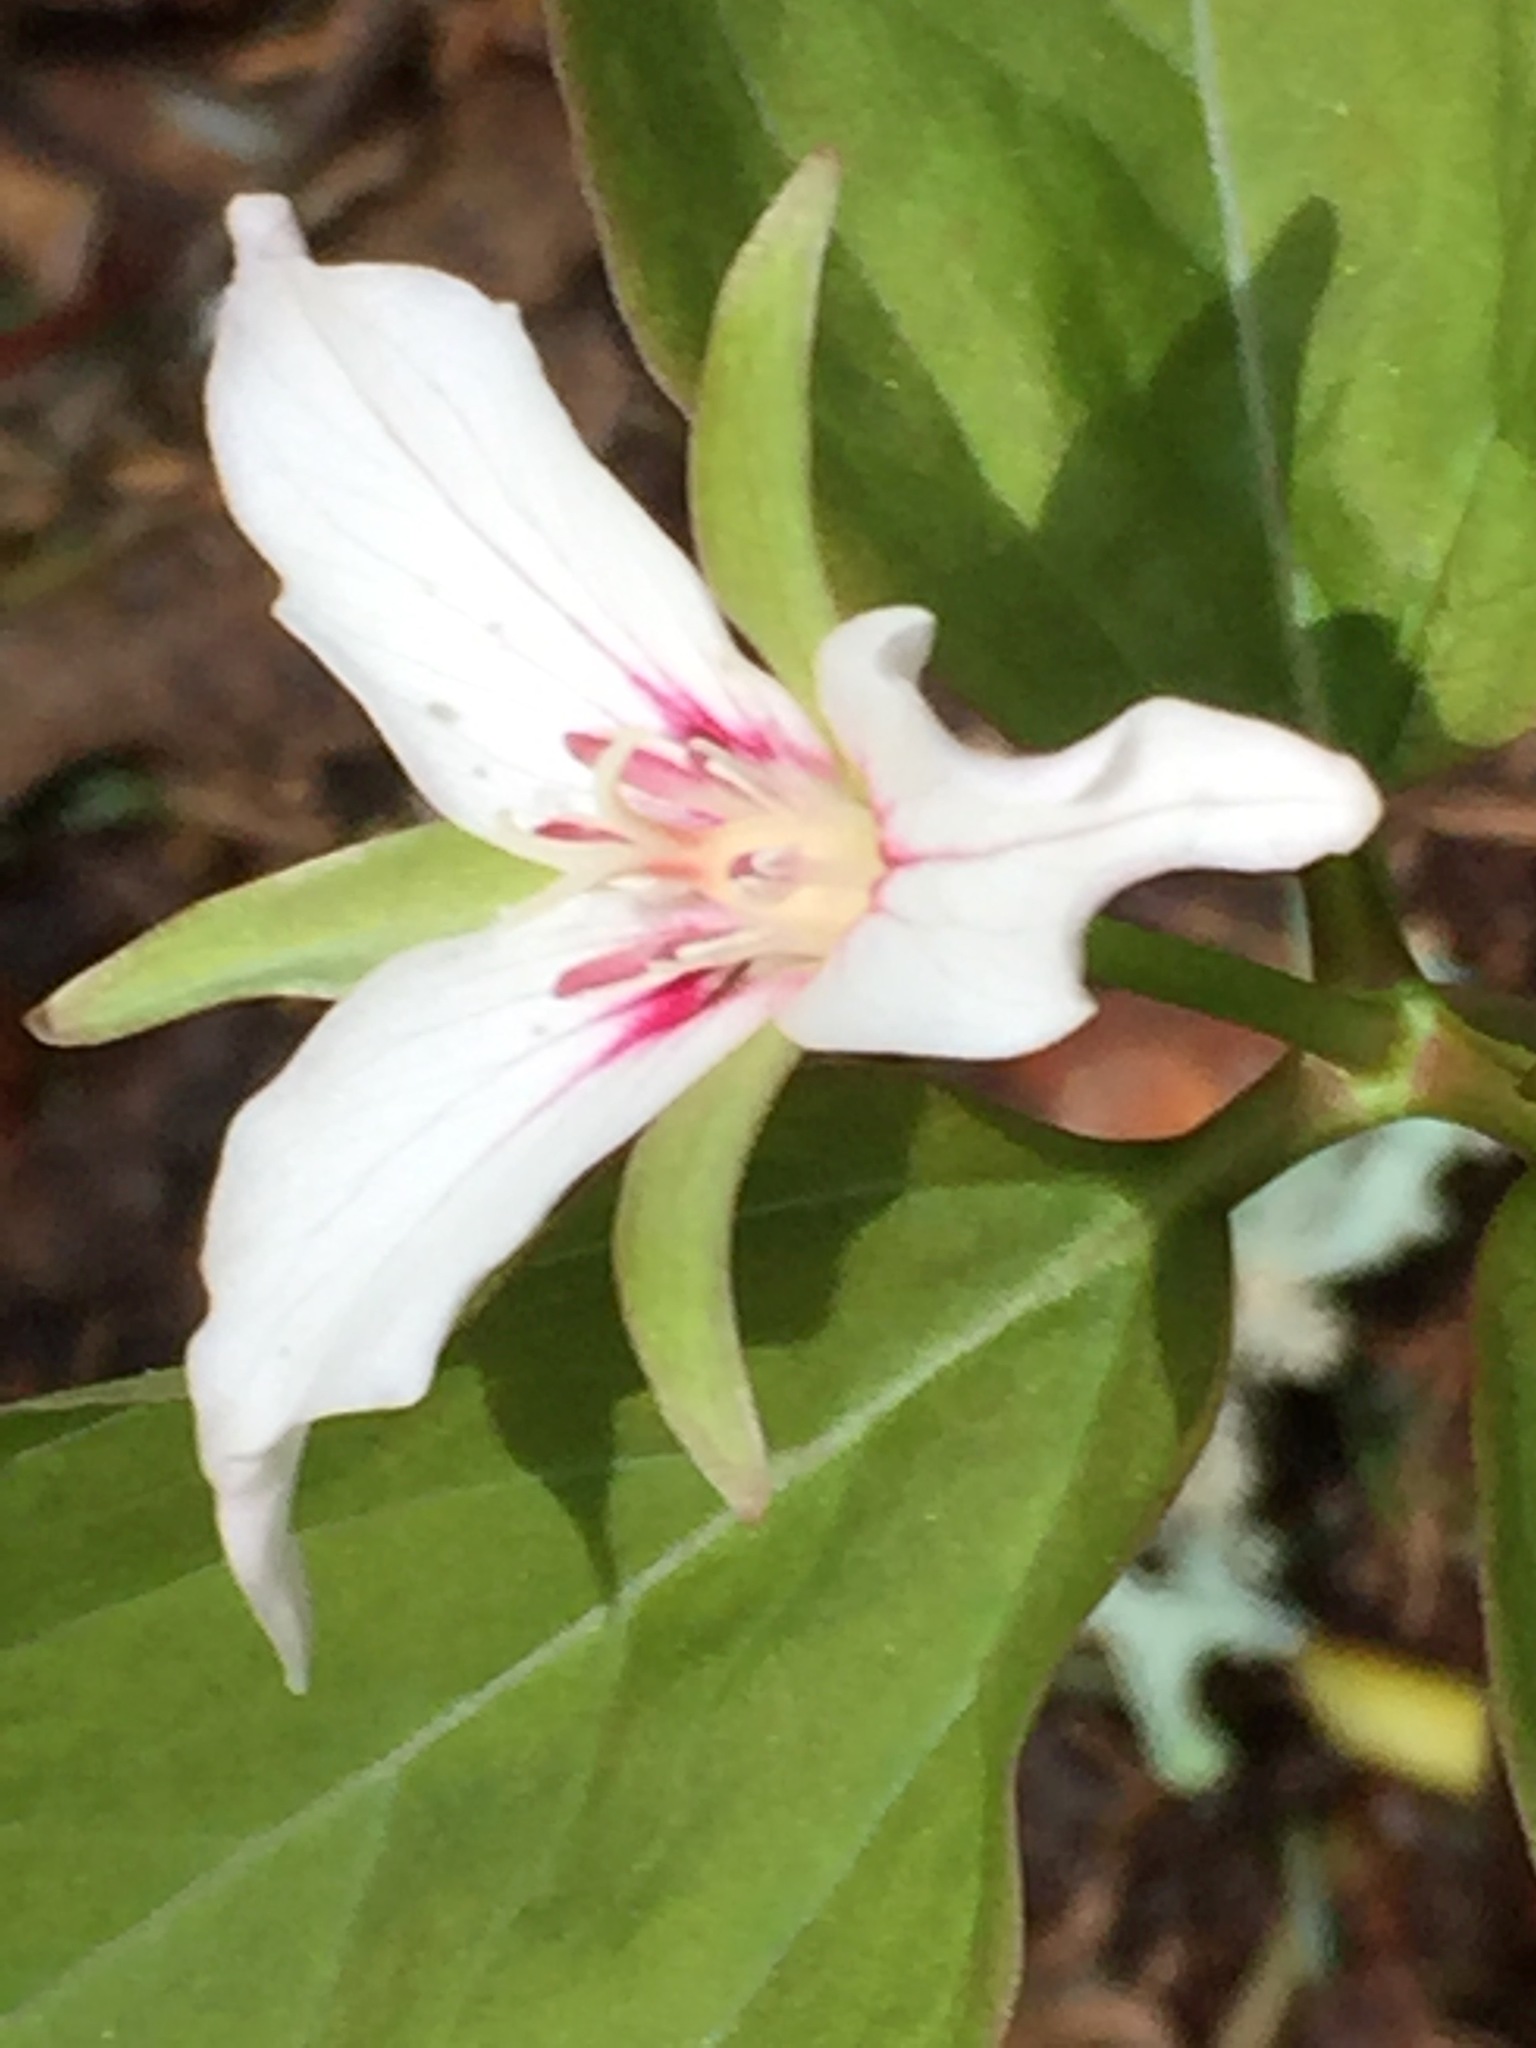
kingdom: Plantae
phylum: Tracheophyta
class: Liliopsida
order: Liliales
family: Melanthiaceae
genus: Trillium
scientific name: Trillium undulatum
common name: Paint trillium
